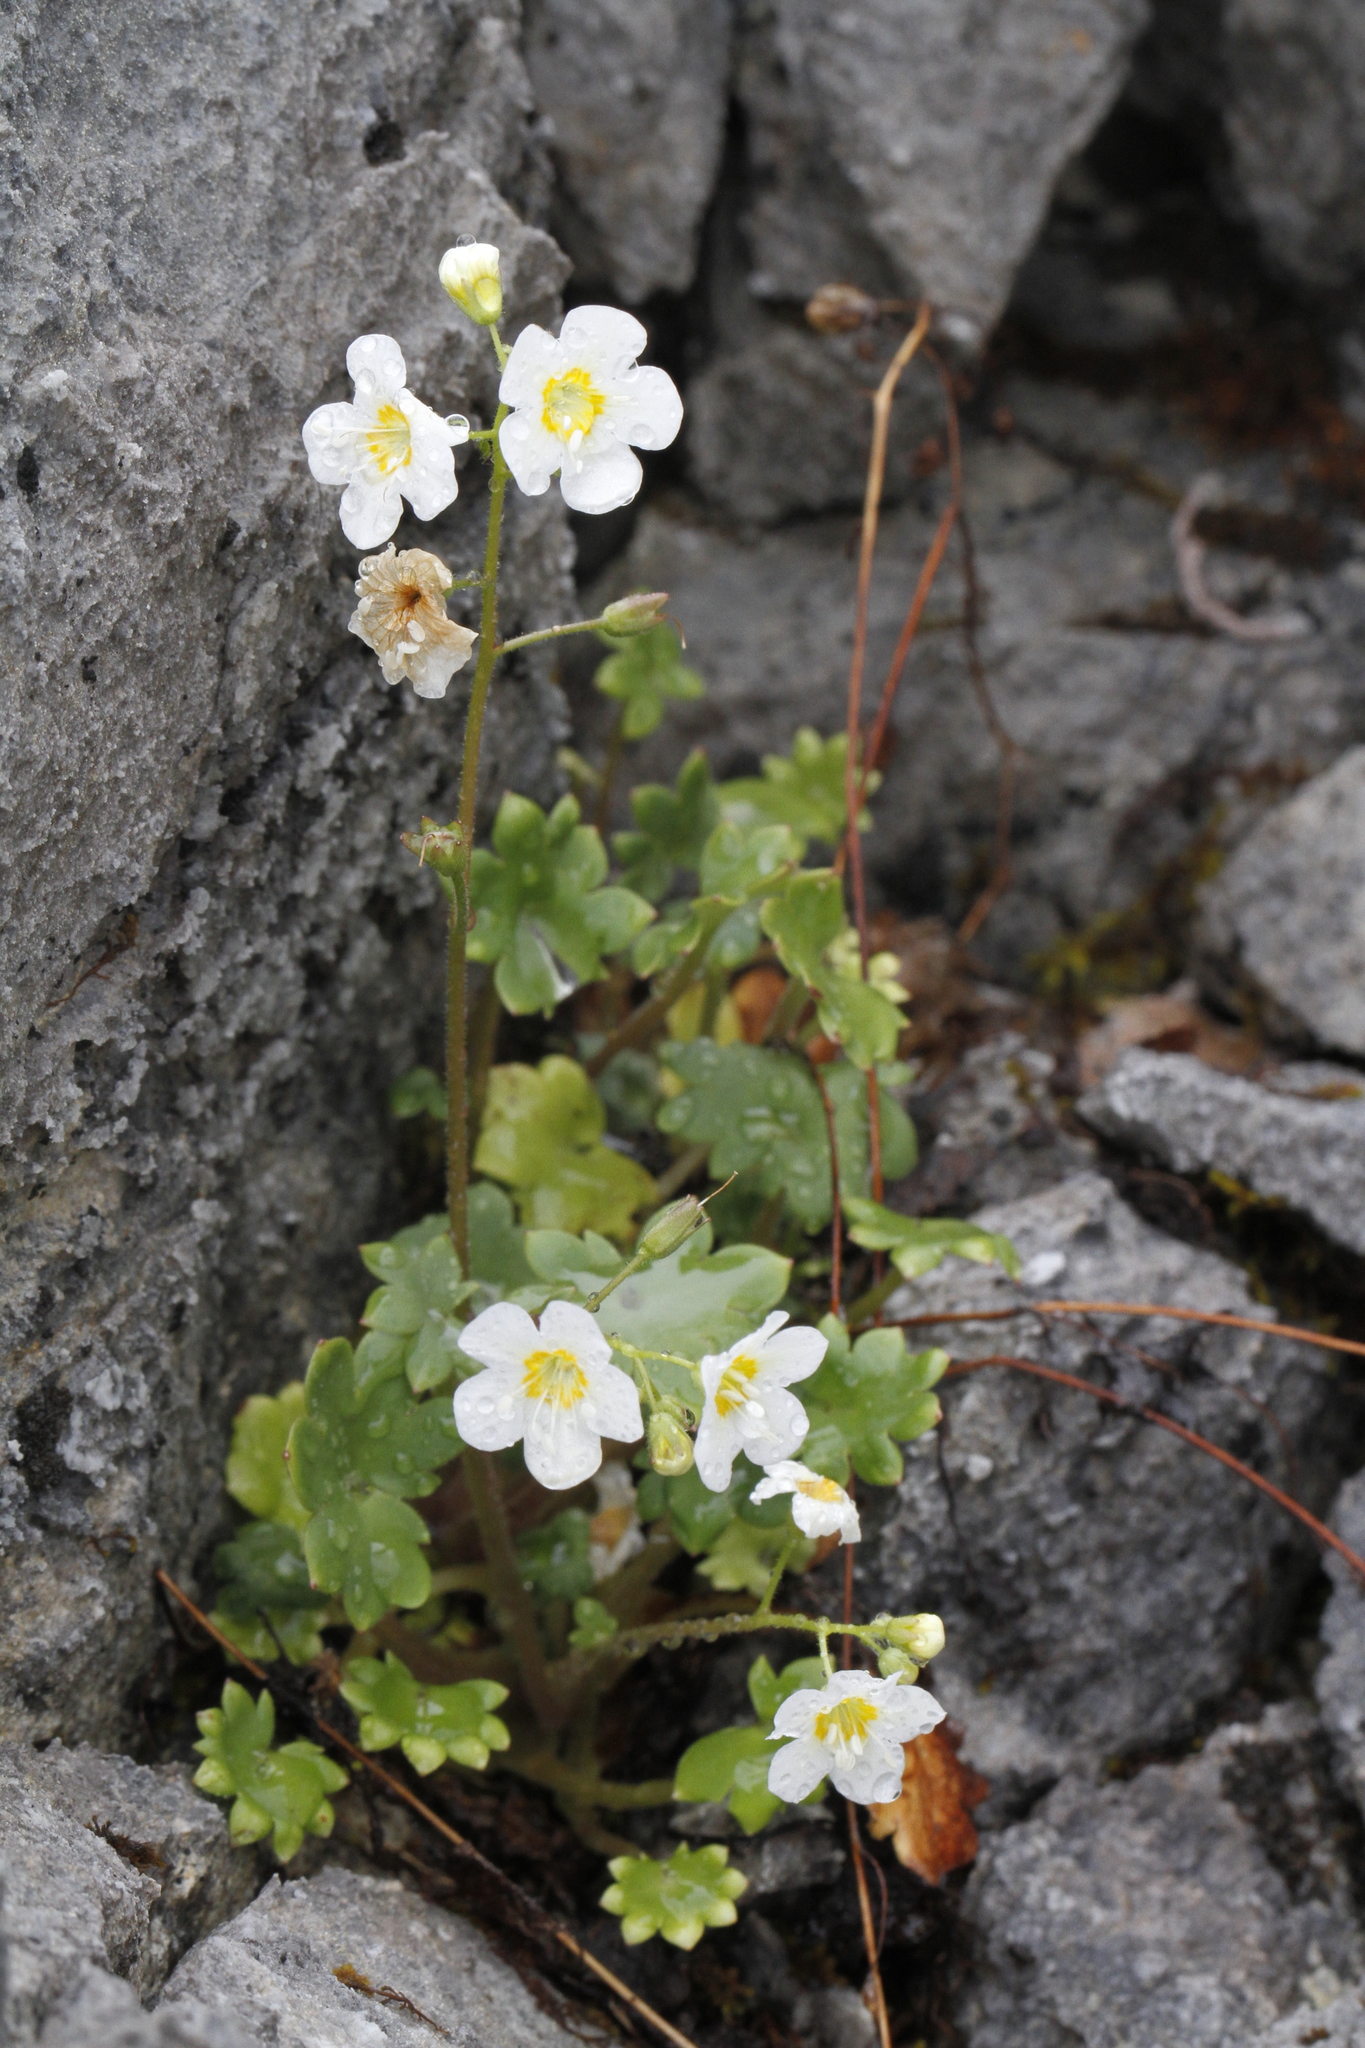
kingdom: Plantae
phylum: Tracheophyta
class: Magnoliopsida
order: Boraginales
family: Hydrophyllaceae
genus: Romanzoffia
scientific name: Romanzoffia sitchensis
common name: Sitka mistmaid
